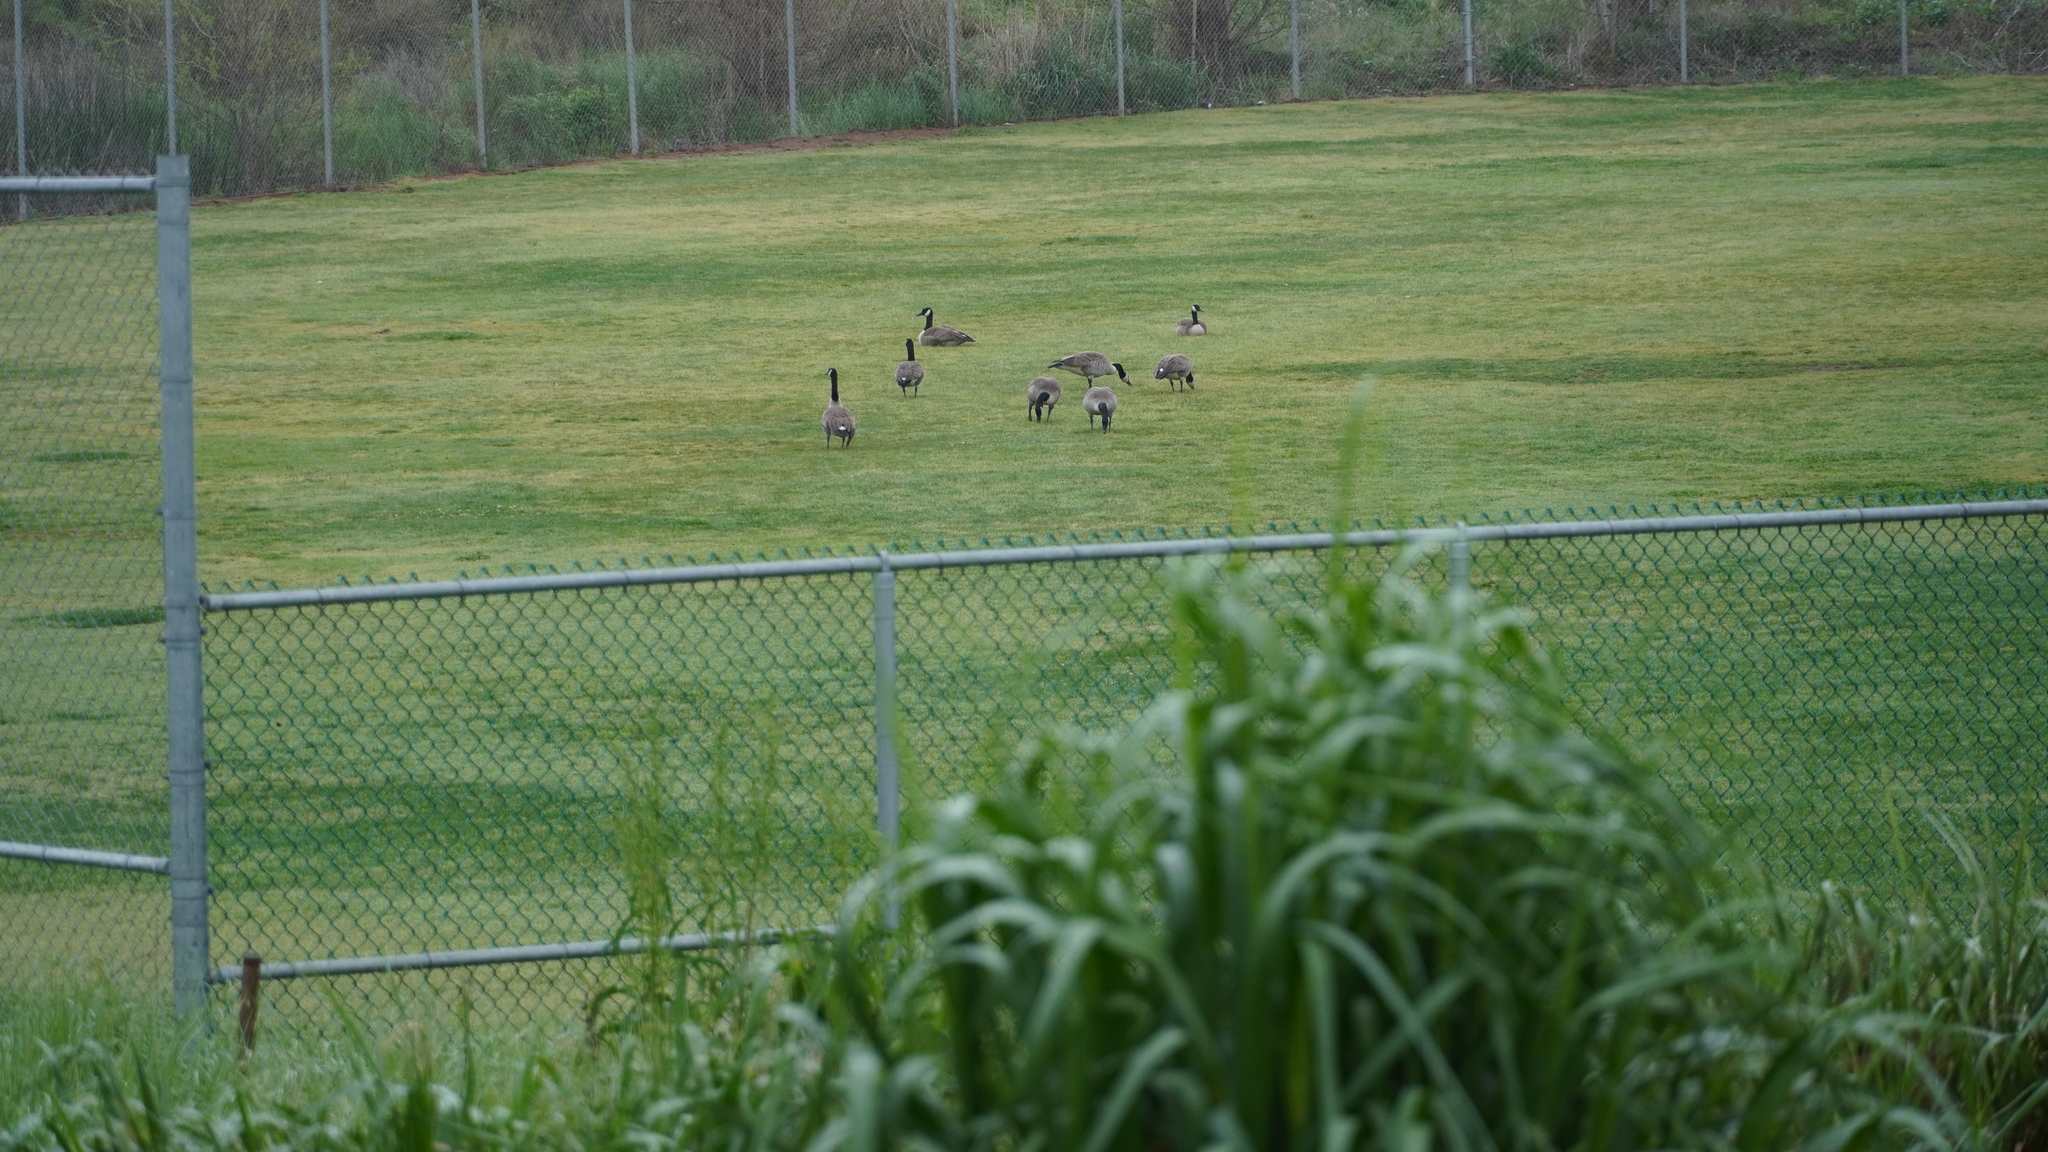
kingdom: Animalia
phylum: Chordata
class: Aves
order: Anseriformes
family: Anatidae
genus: Branta
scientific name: Branta canadensis
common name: Canada goose
